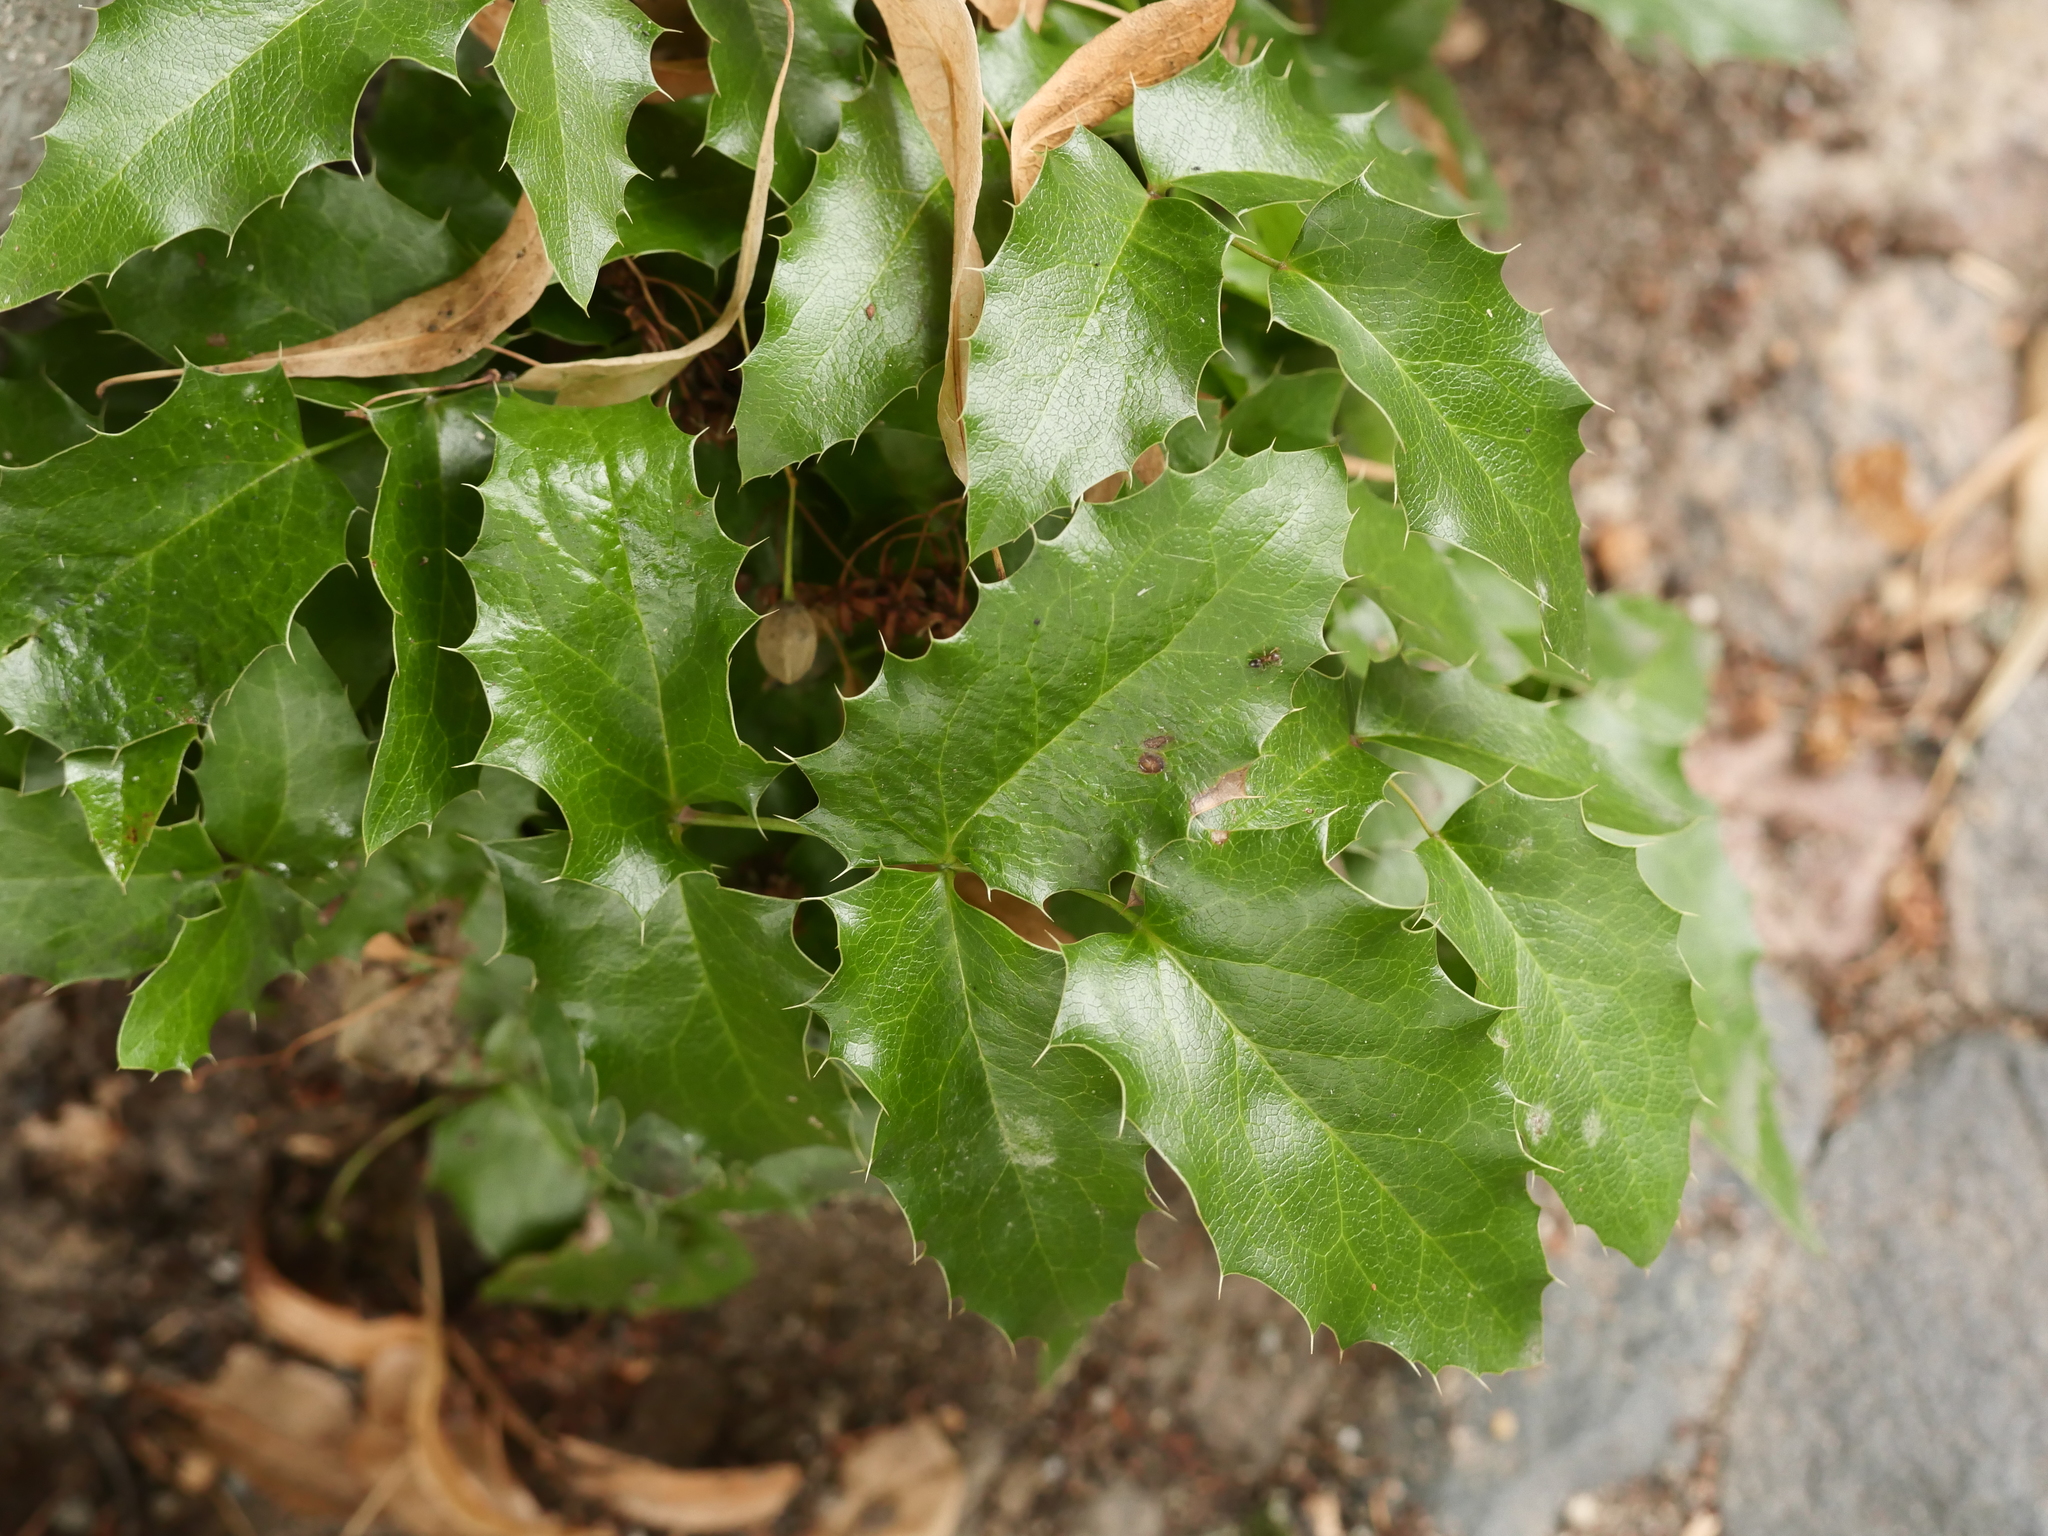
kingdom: Plantae
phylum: Tracheophyta
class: Magnoliopsida
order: Ranunculales
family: Berberidaceae
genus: Mahonia
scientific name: Mahonia aquifolium
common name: Oregon-grape
